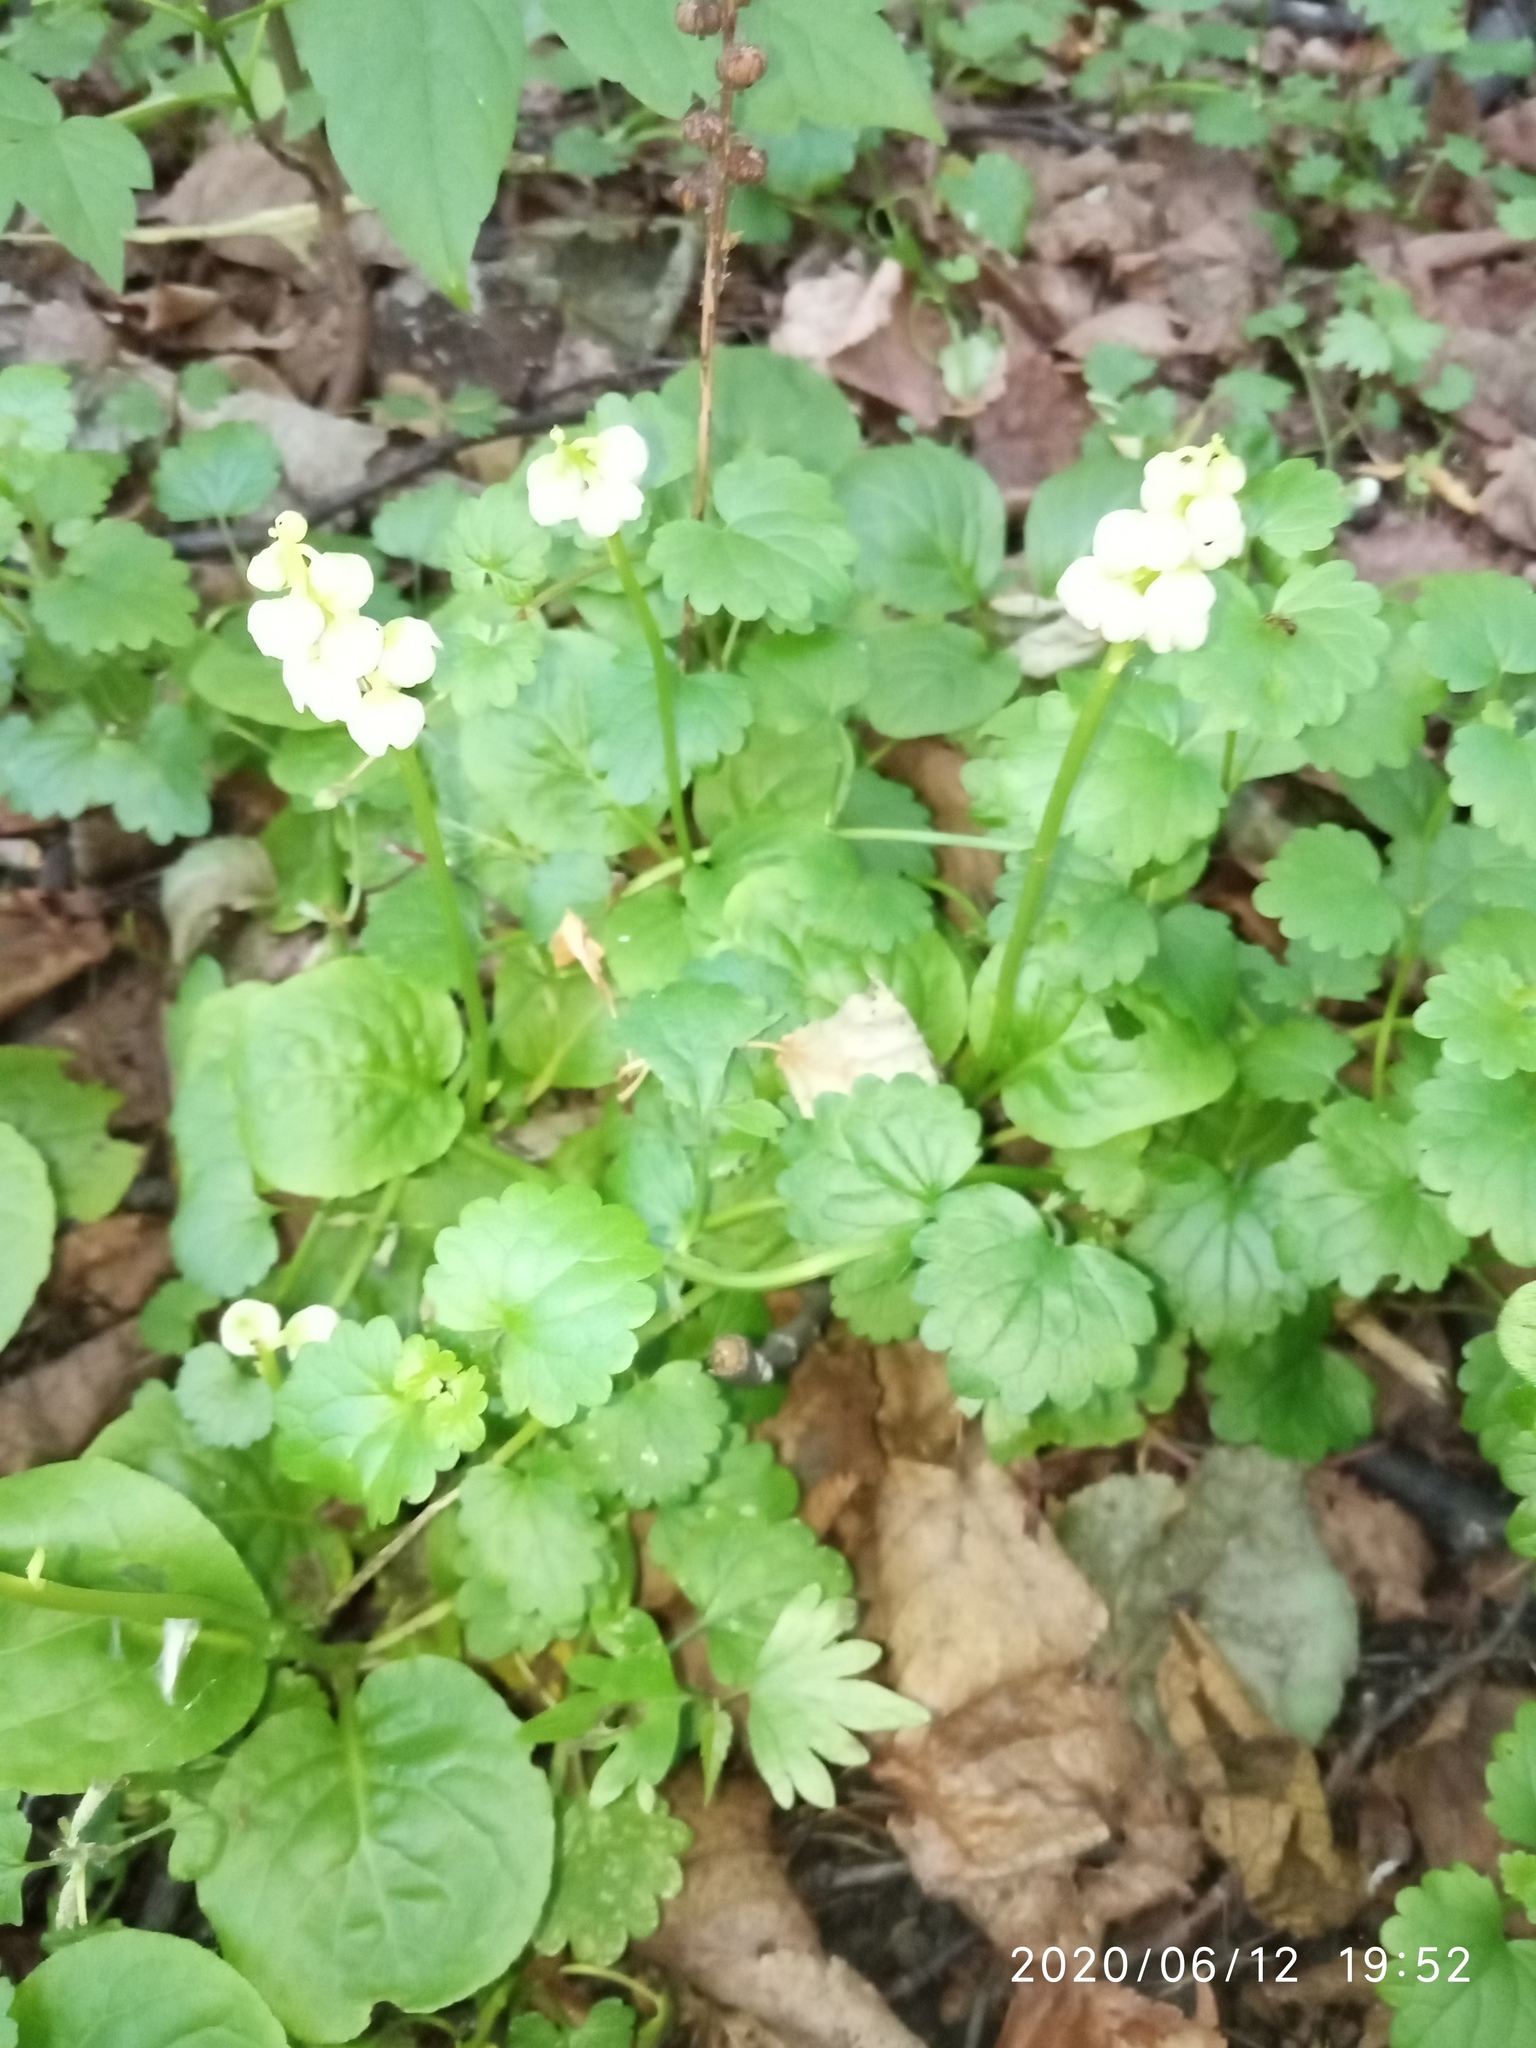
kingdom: Plantae
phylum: Tracheophyta
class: Magnoliopsida
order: Ericales
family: Ericaceae
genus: Pyrola
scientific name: Pyrola minor
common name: Common wintergreen
